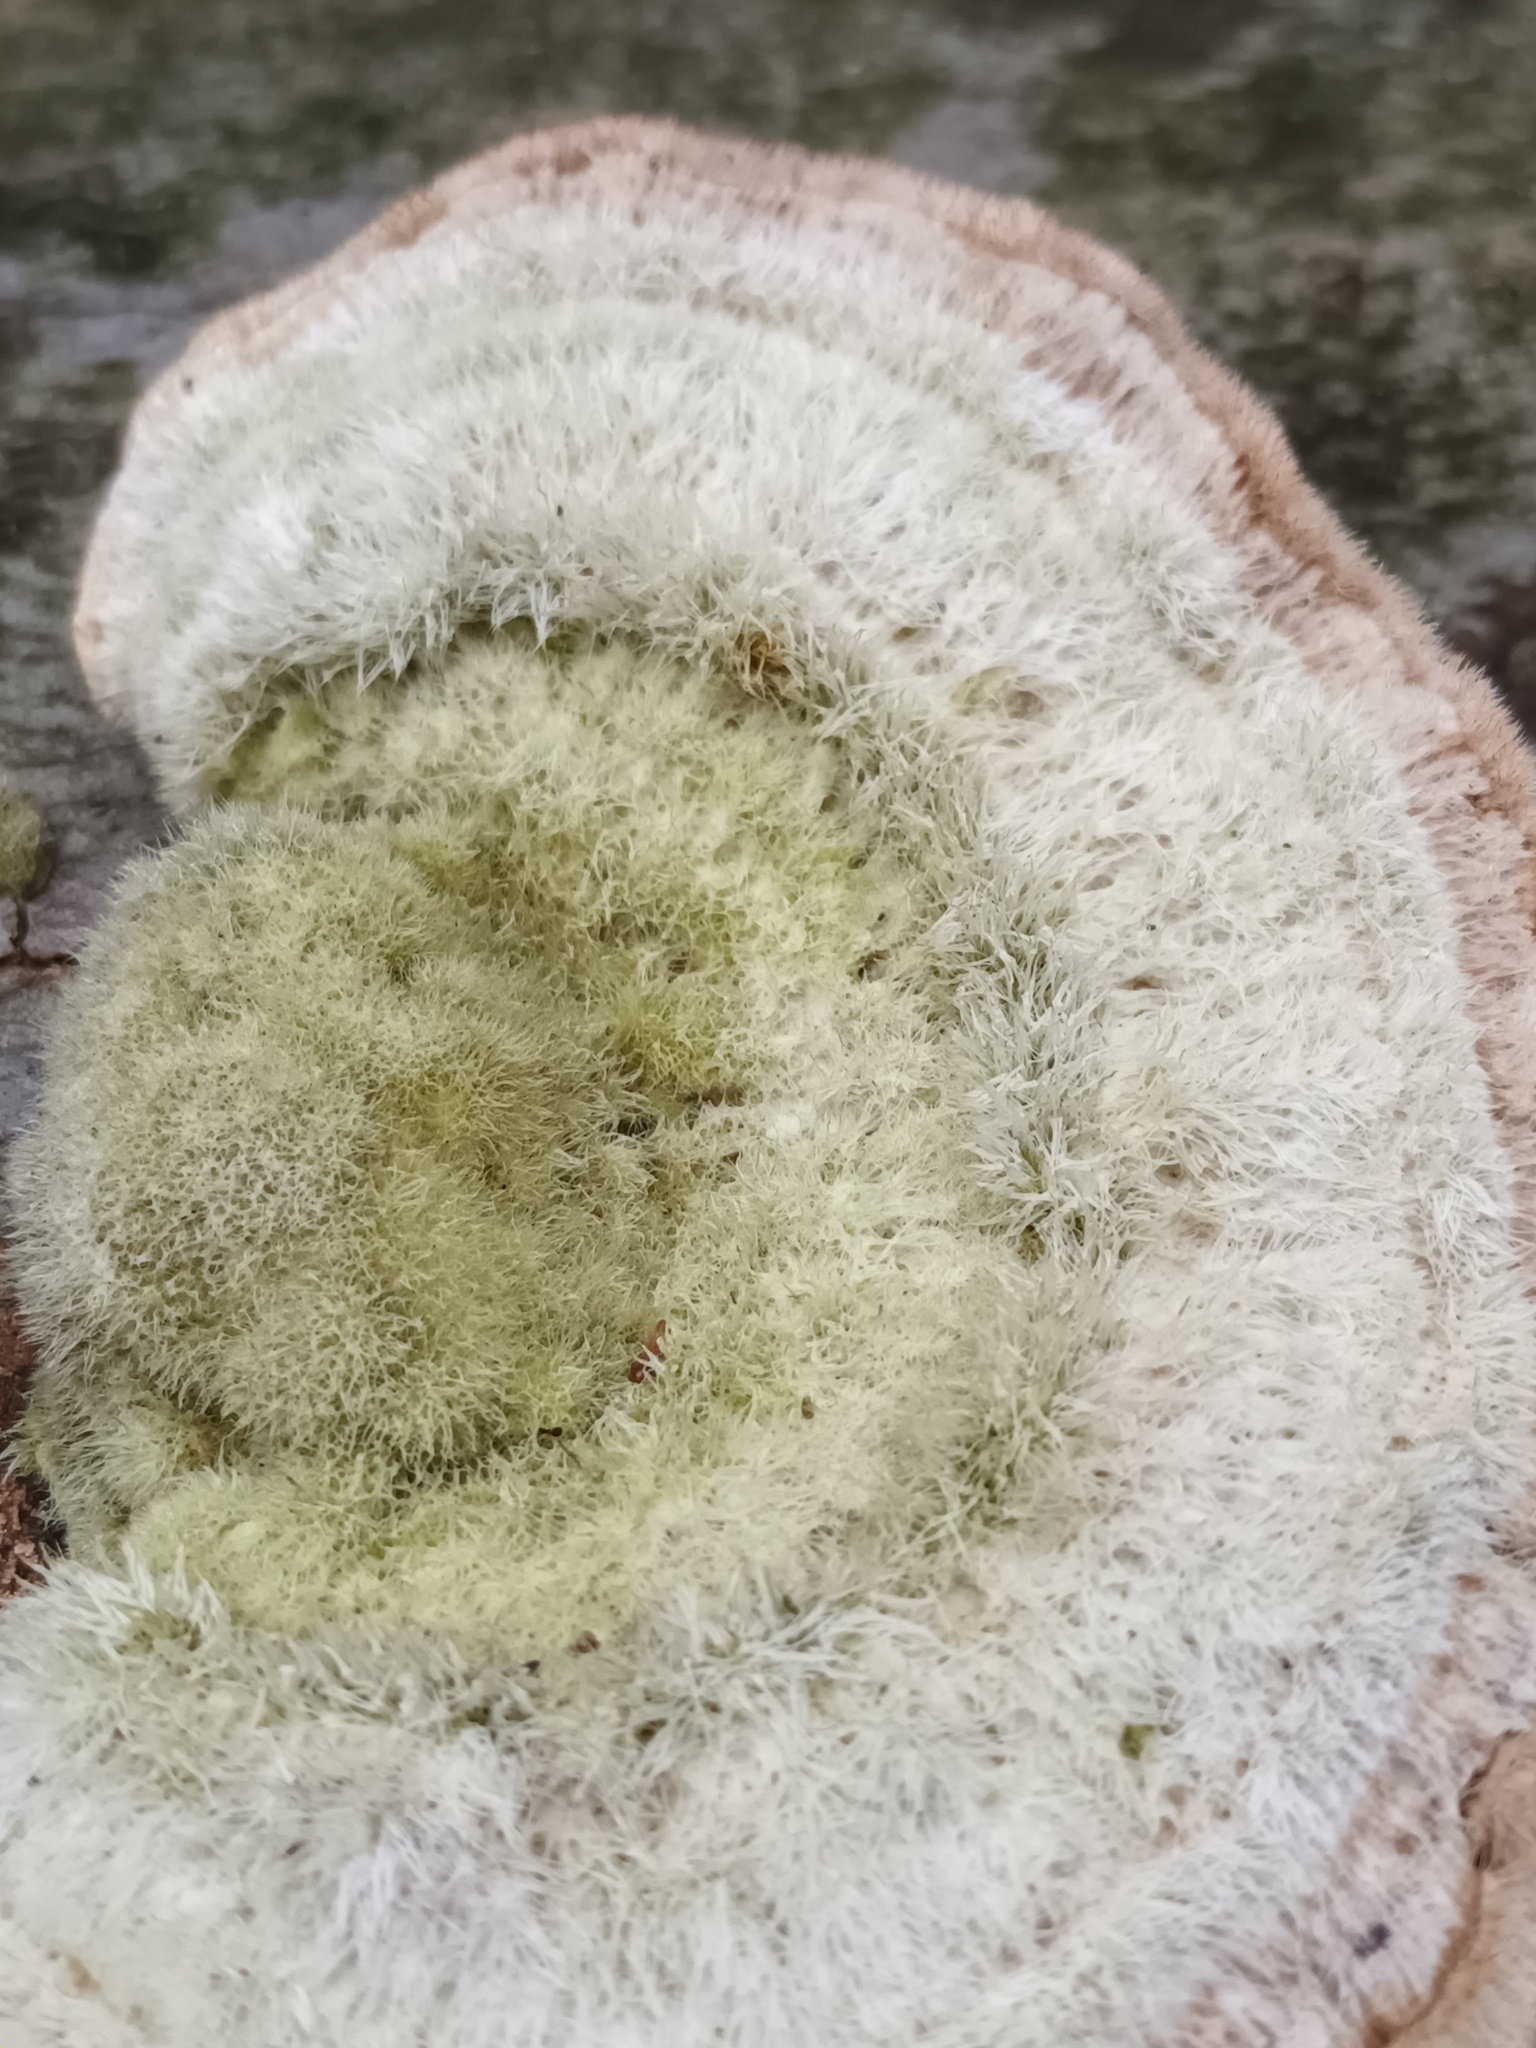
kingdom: Fungi
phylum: Basidiomycota
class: Agaricomycetes
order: Polyporales
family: Polyporaceae
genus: Trametes
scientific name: Trametes hirsuta
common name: Hairy bracket
